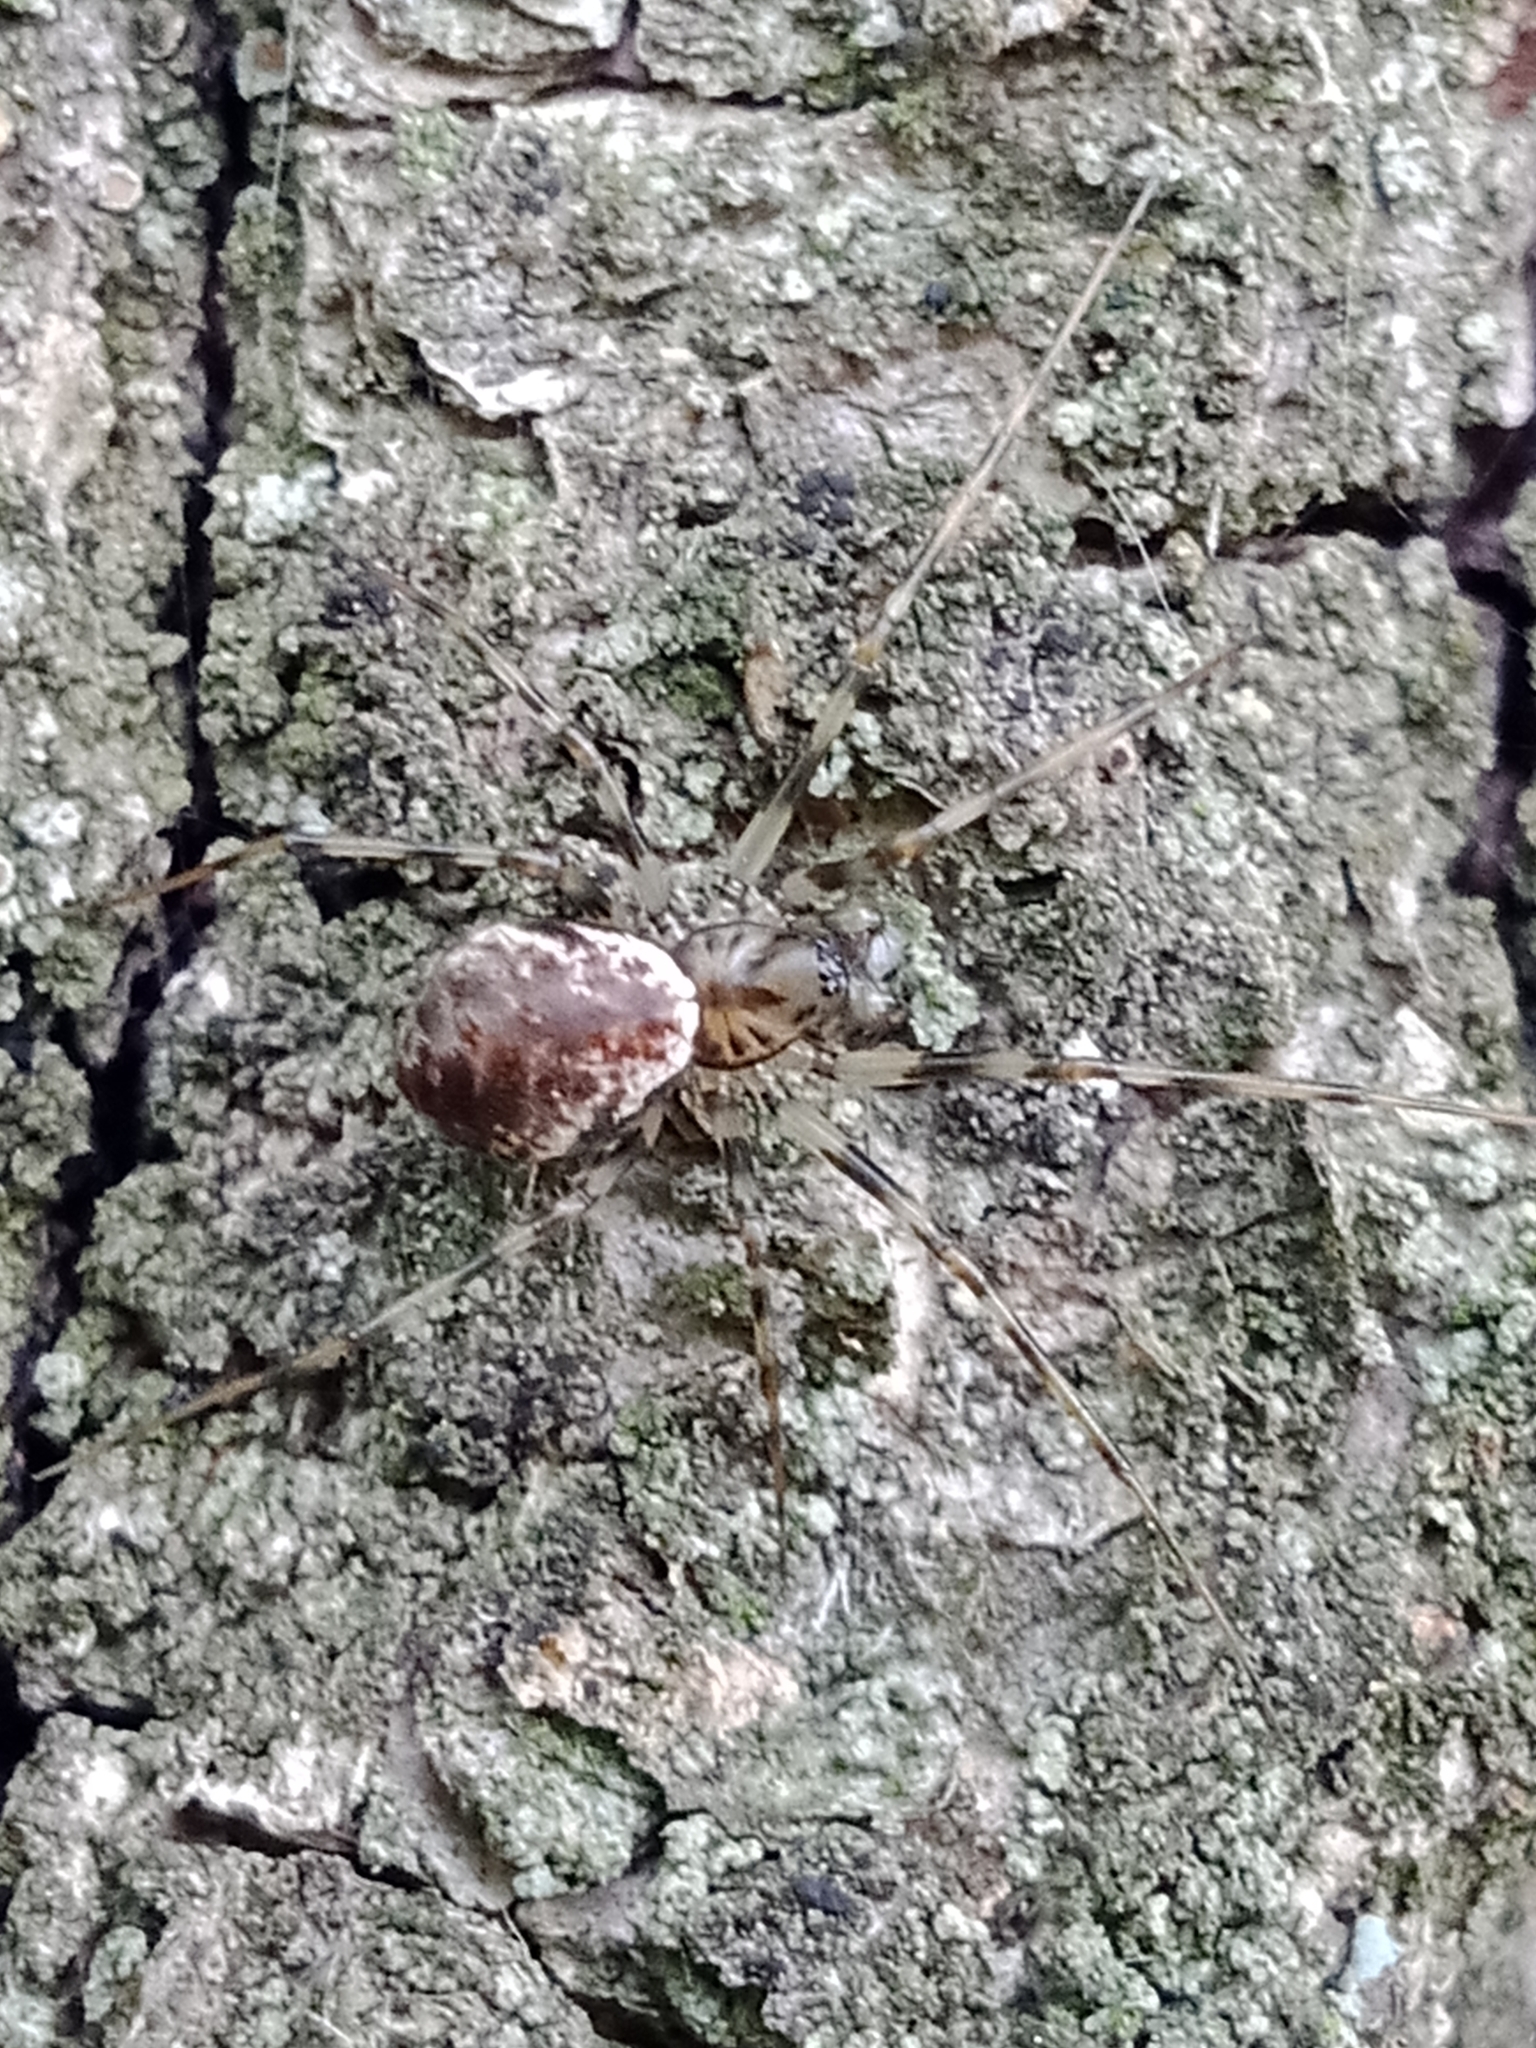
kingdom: Animalia
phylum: Arthropoda
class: Arachnida
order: Araneae
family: Linyphiidae
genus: Drapetisca
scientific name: Drapetisca socialis
